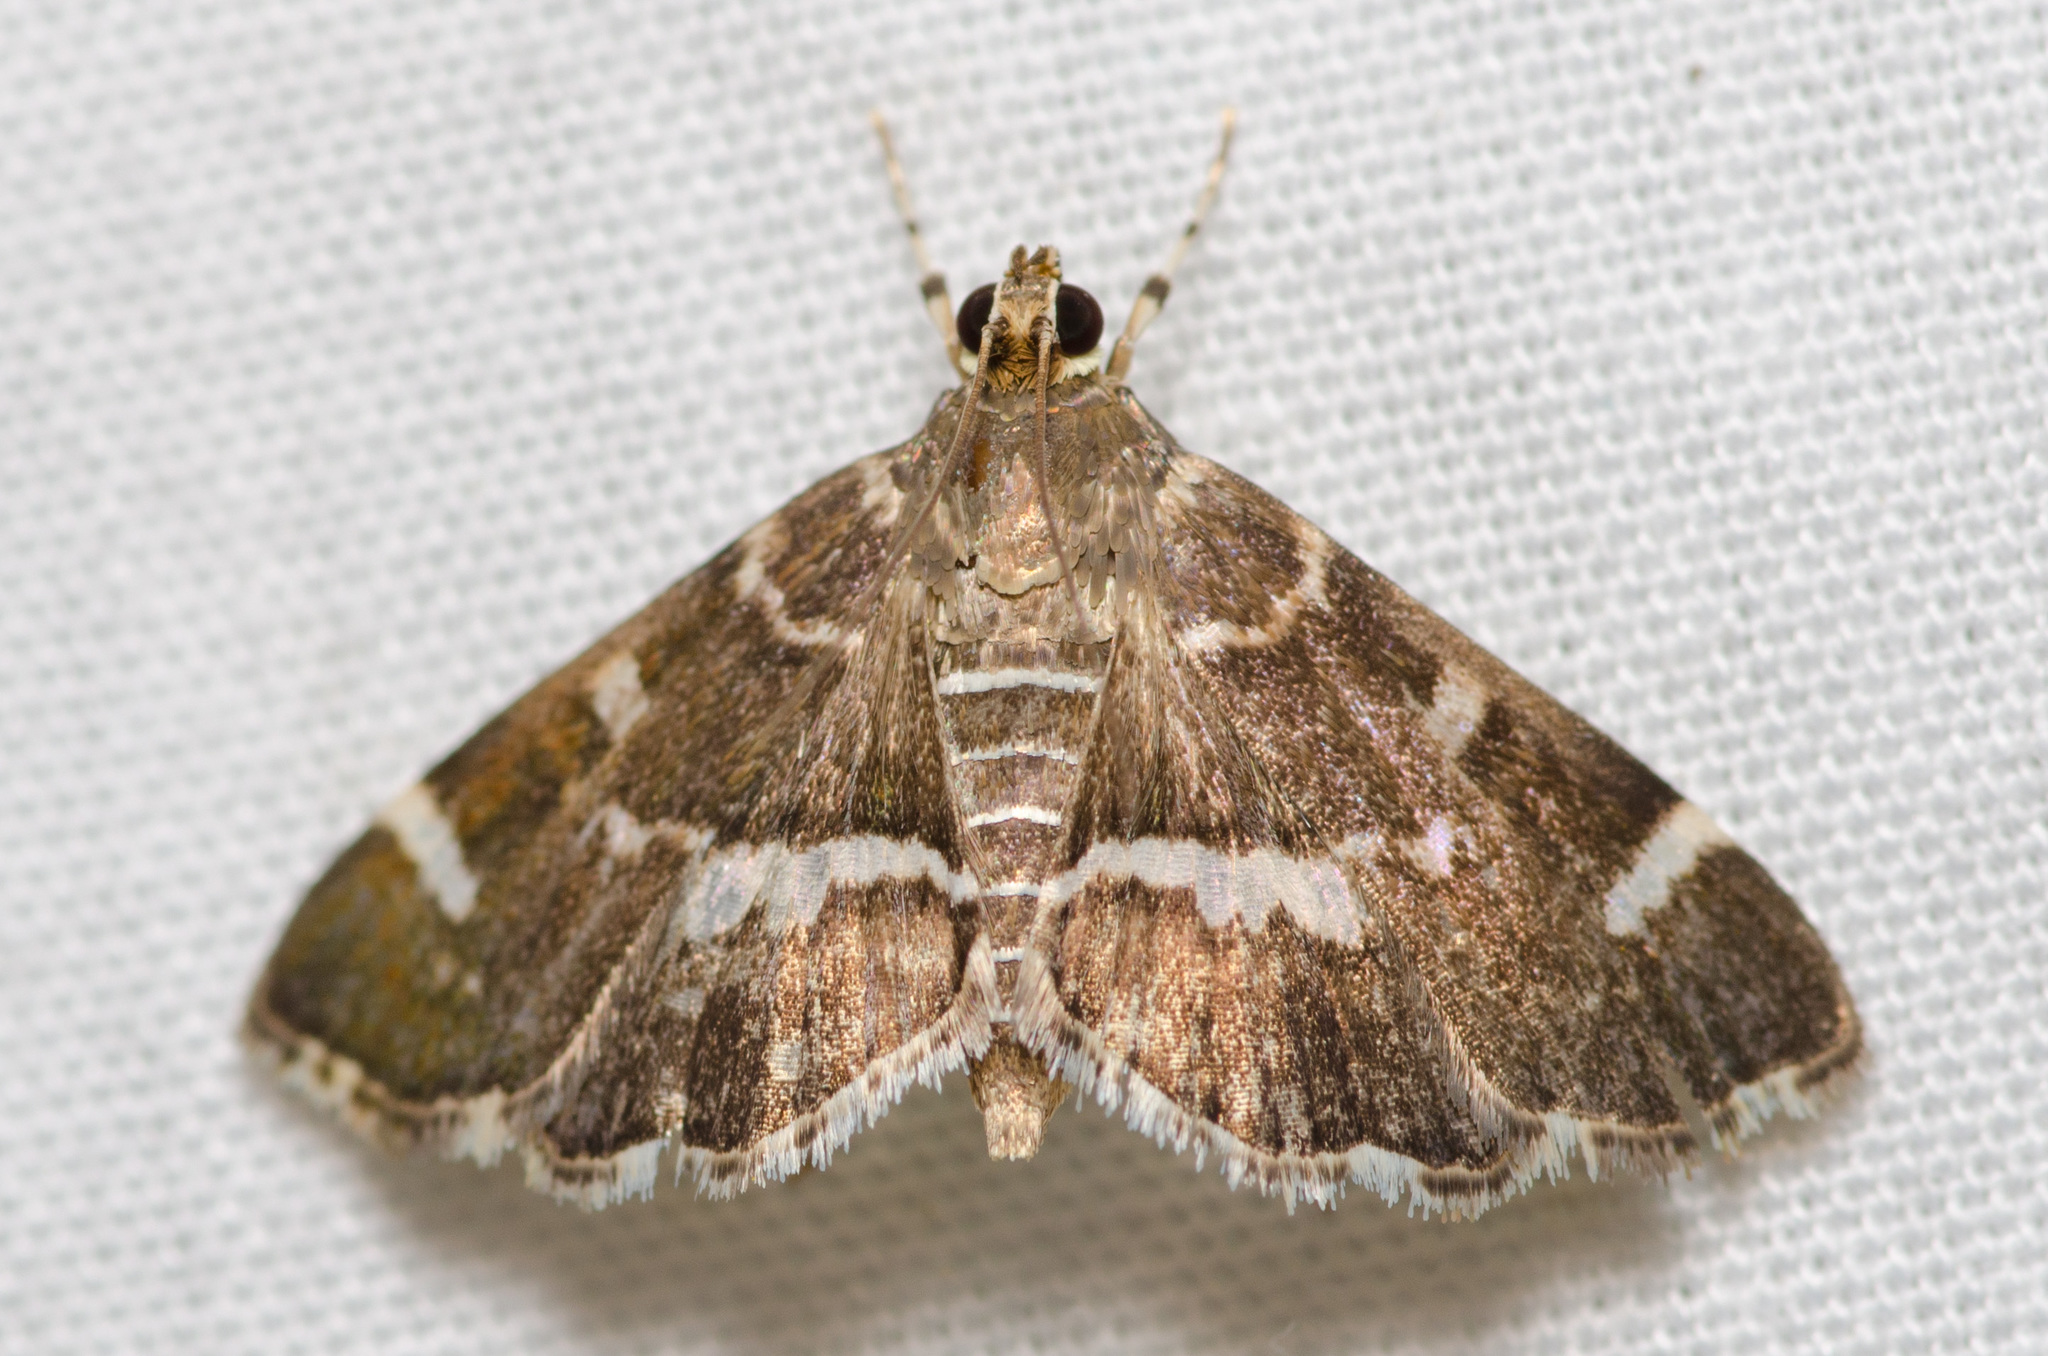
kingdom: Animalia
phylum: Arthropoda
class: Insecta
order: Lepidoptera
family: Crambidae
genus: Hymenia
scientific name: Hymenia perspectalis
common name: Spotted beet webworm
